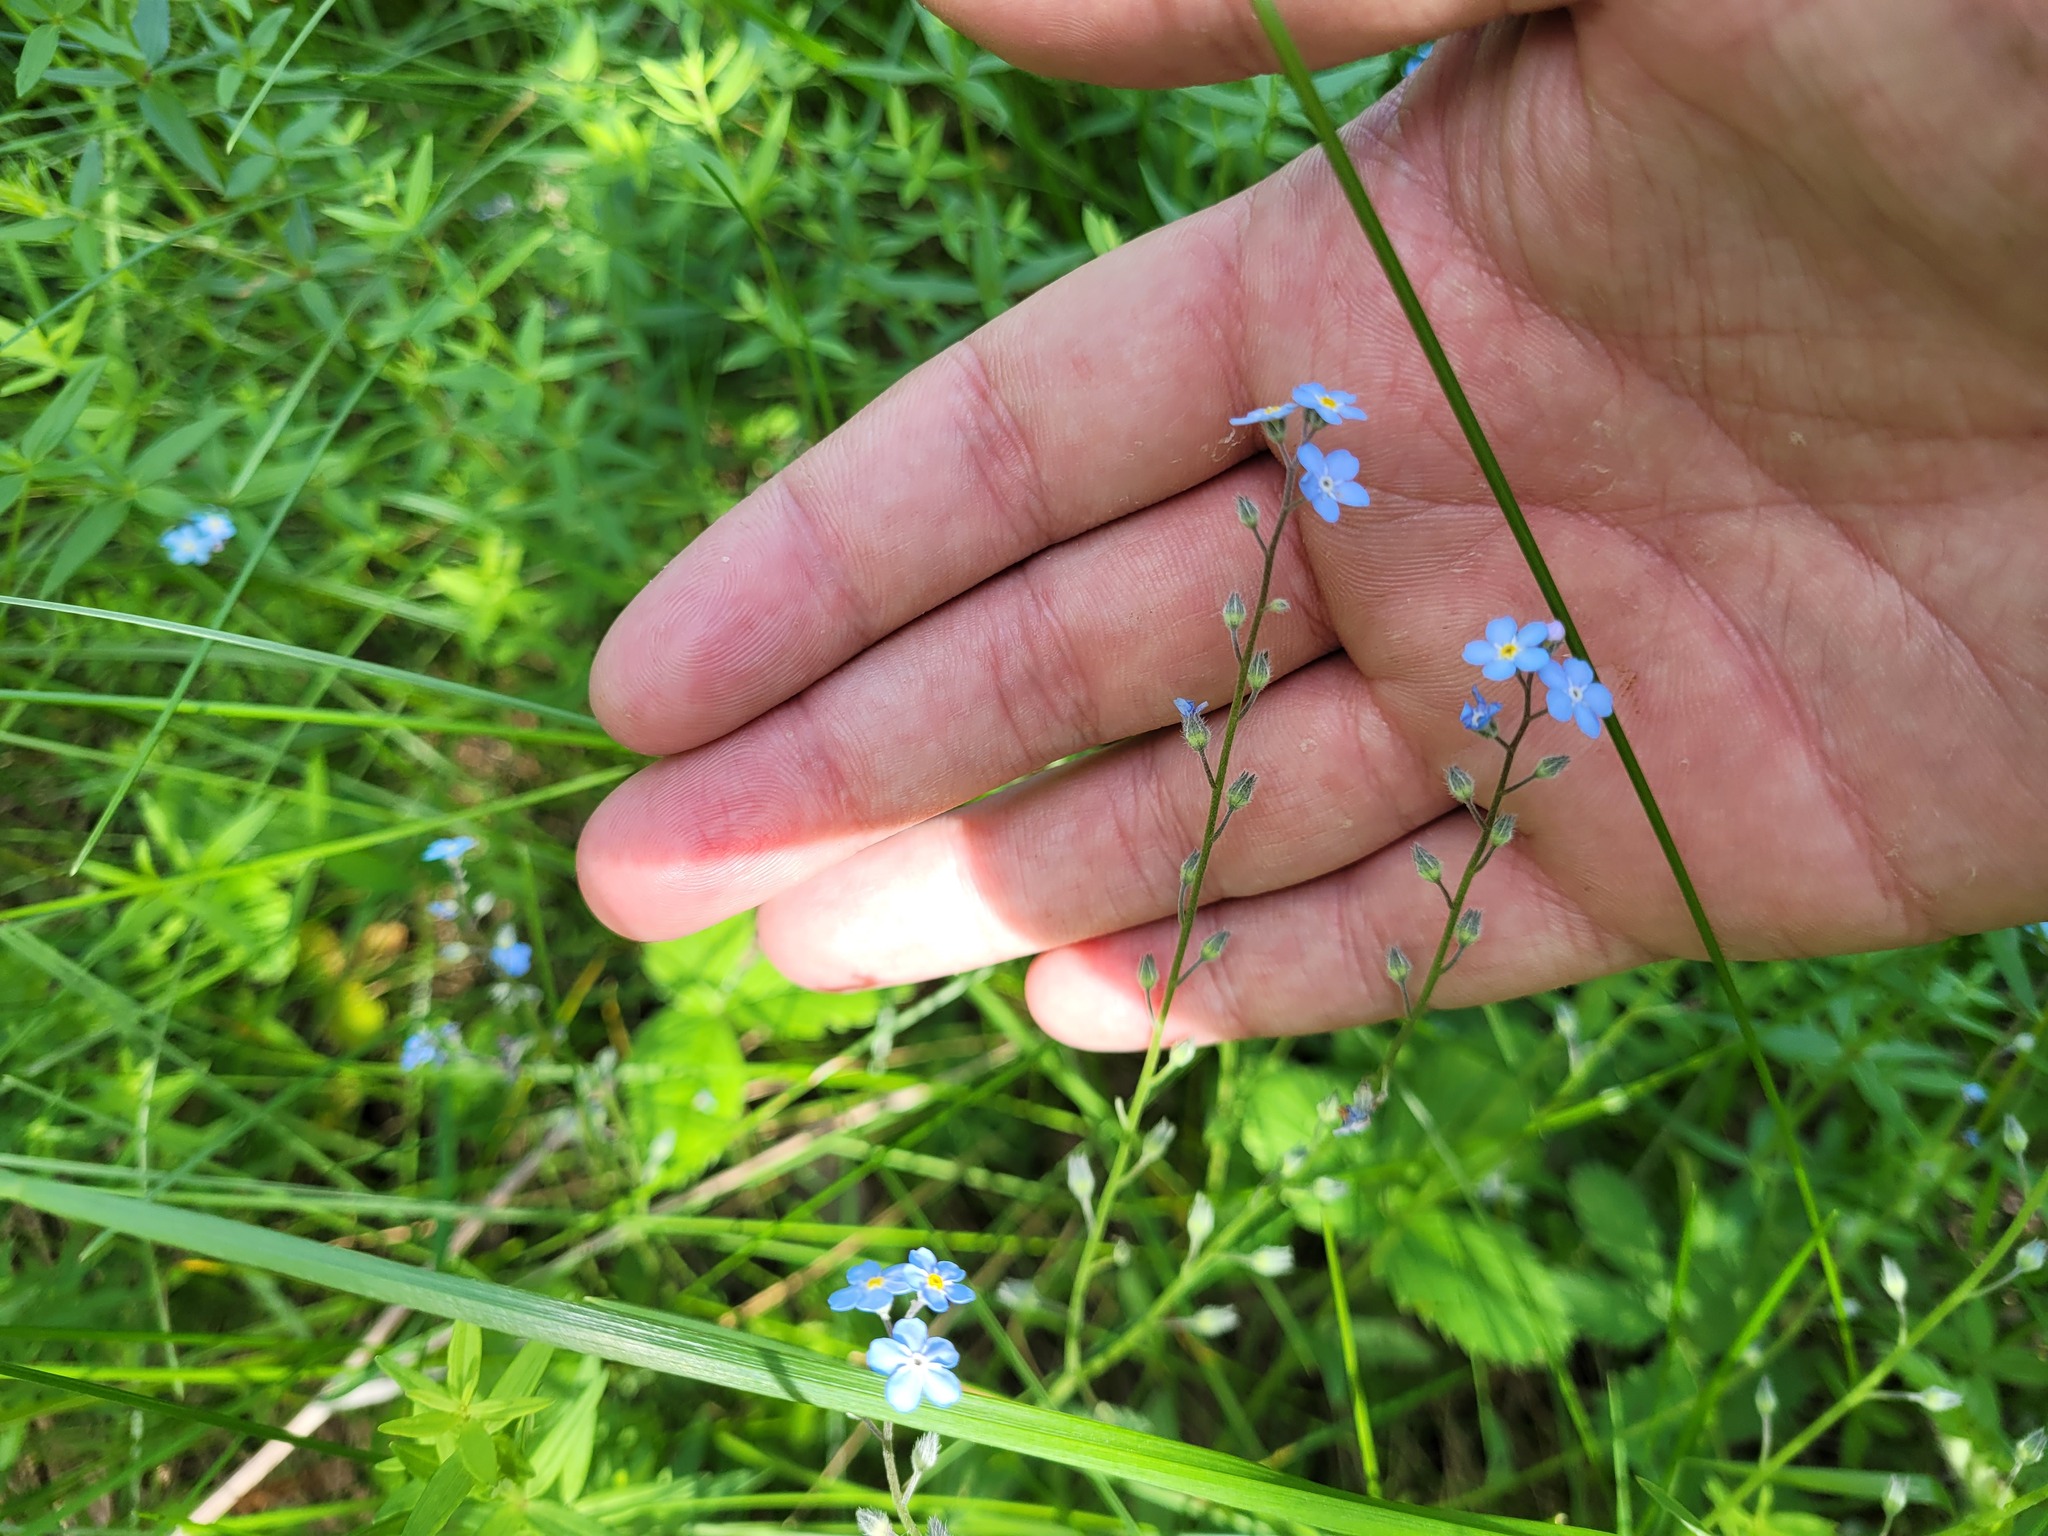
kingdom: Plantae
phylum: Tracheophyta
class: Magnoliopsida
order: Boraginales
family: Boraginaceae
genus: Myosotis
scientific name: Myosotis alpestris
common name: Alpine forget-me-not
